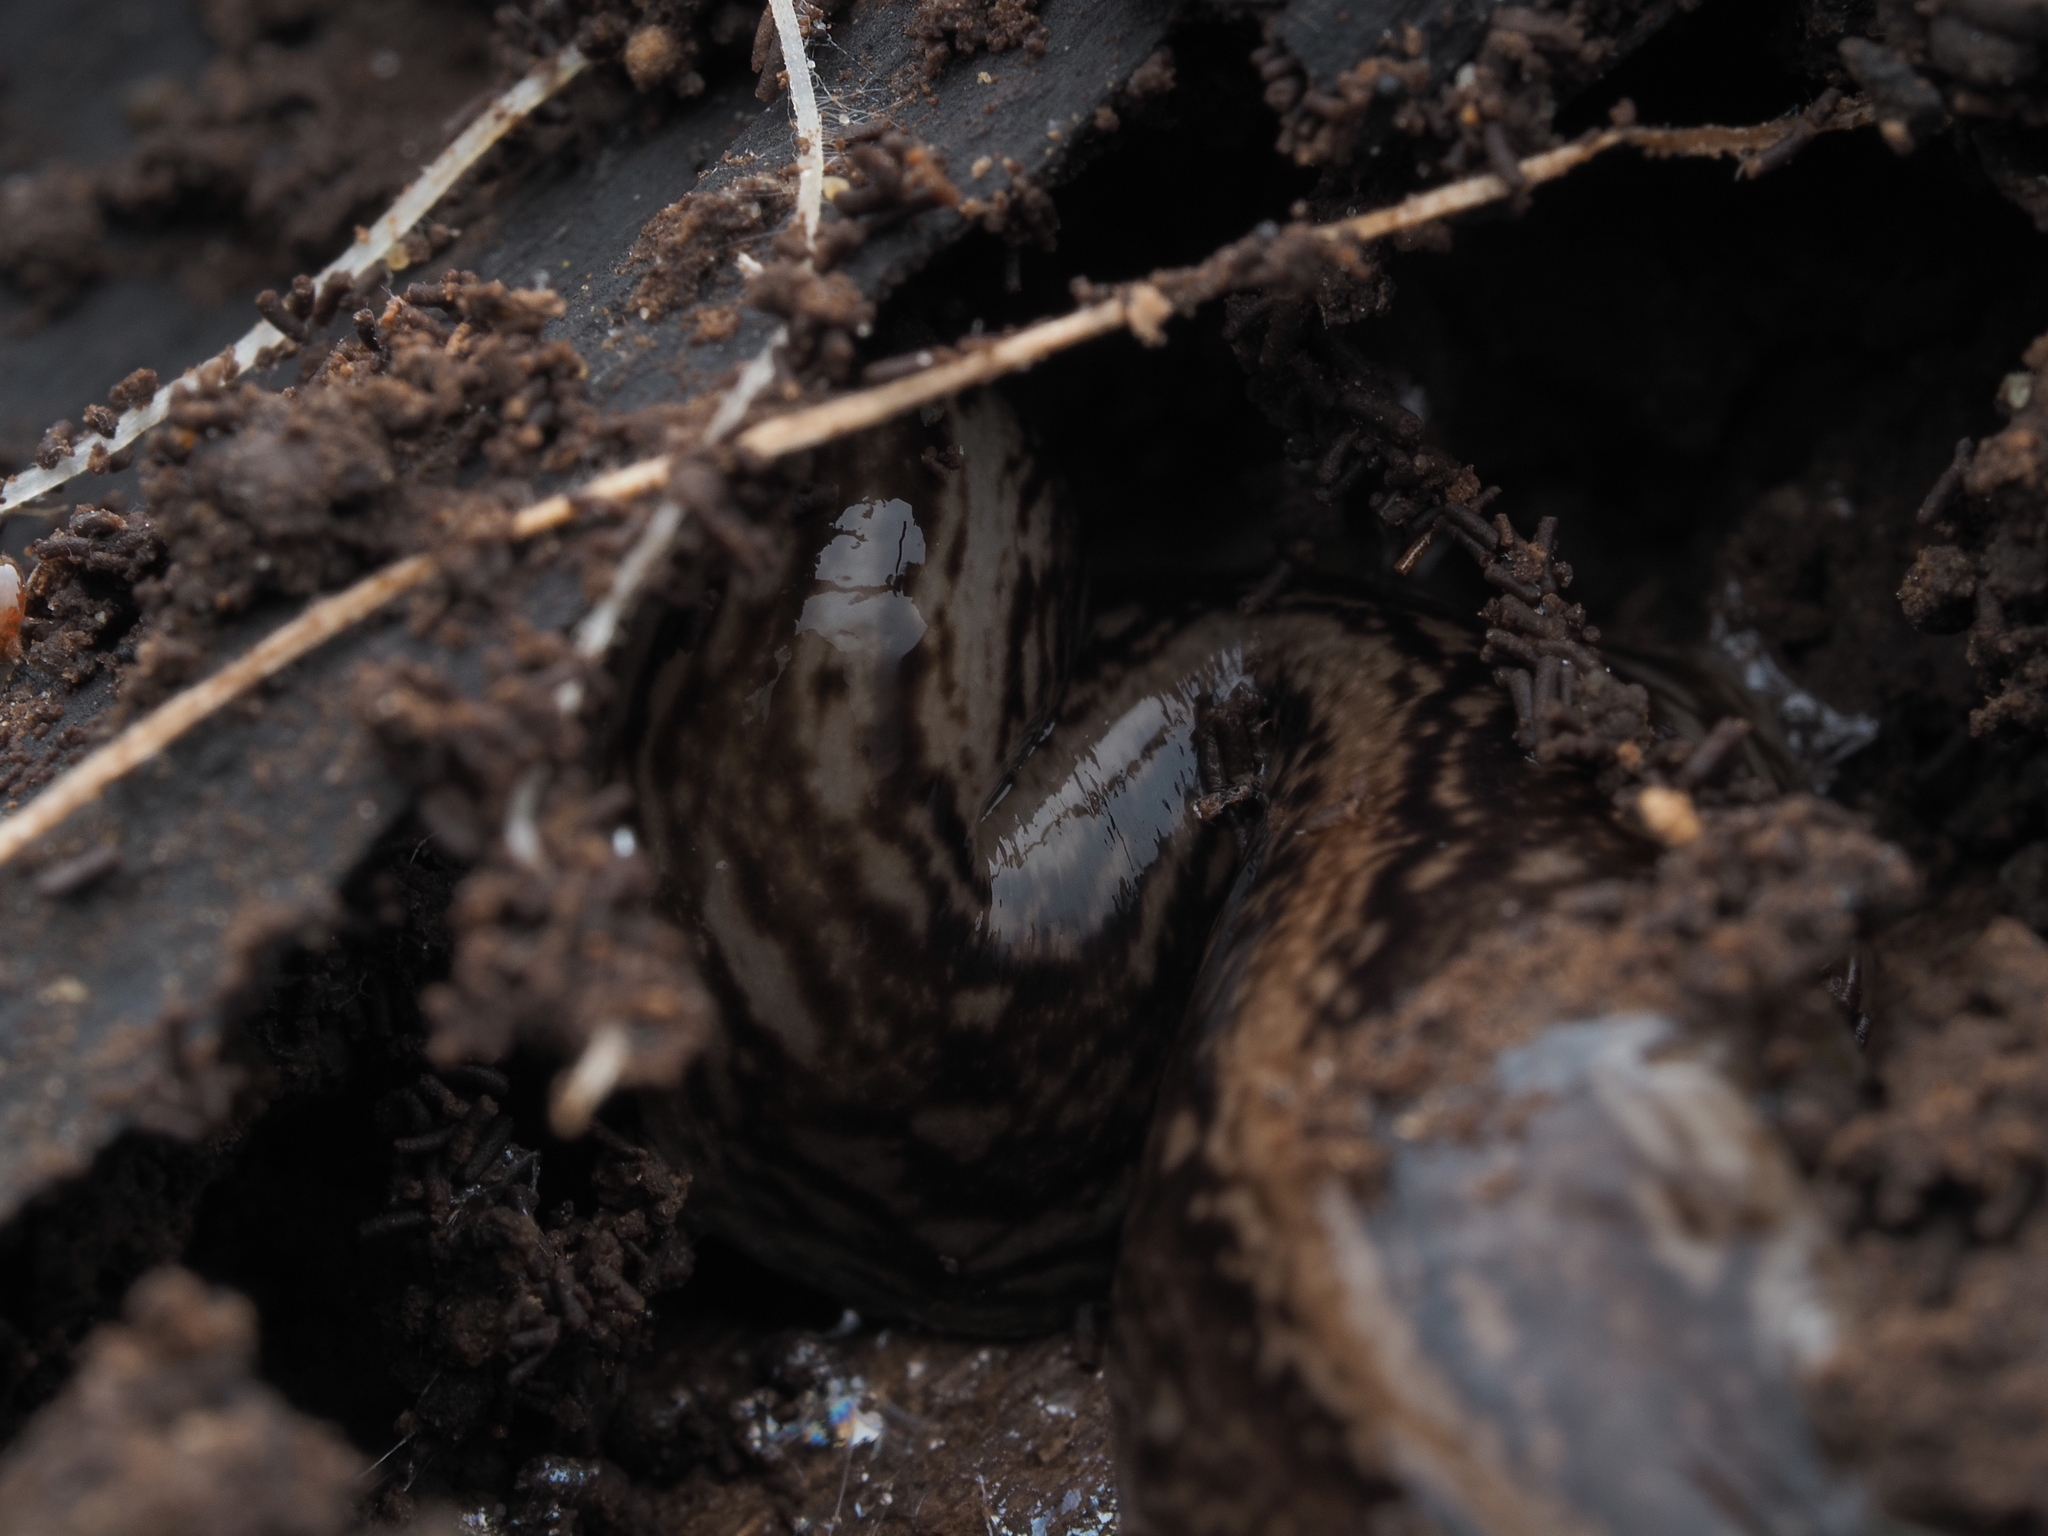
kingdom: Animalia
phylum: Platyhelminthes
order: Tricladida
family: Geoplanidae
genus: Newzealandia
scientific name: Newzealandia graffii
